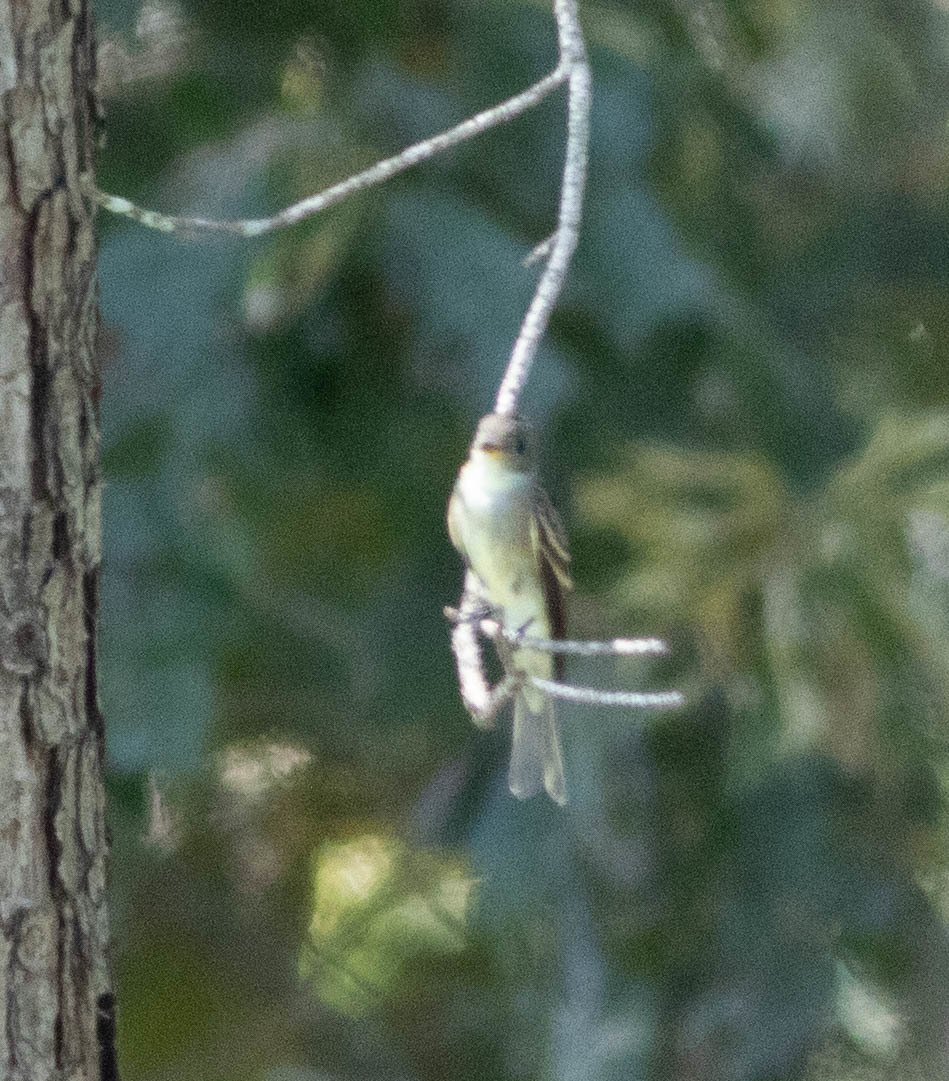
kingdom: Animalia
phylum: Chordata
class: Aves
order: Passeriformes
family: Tyrannidae
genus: Contopus
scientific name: Contopus virens
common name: Eastern wood-pewee
